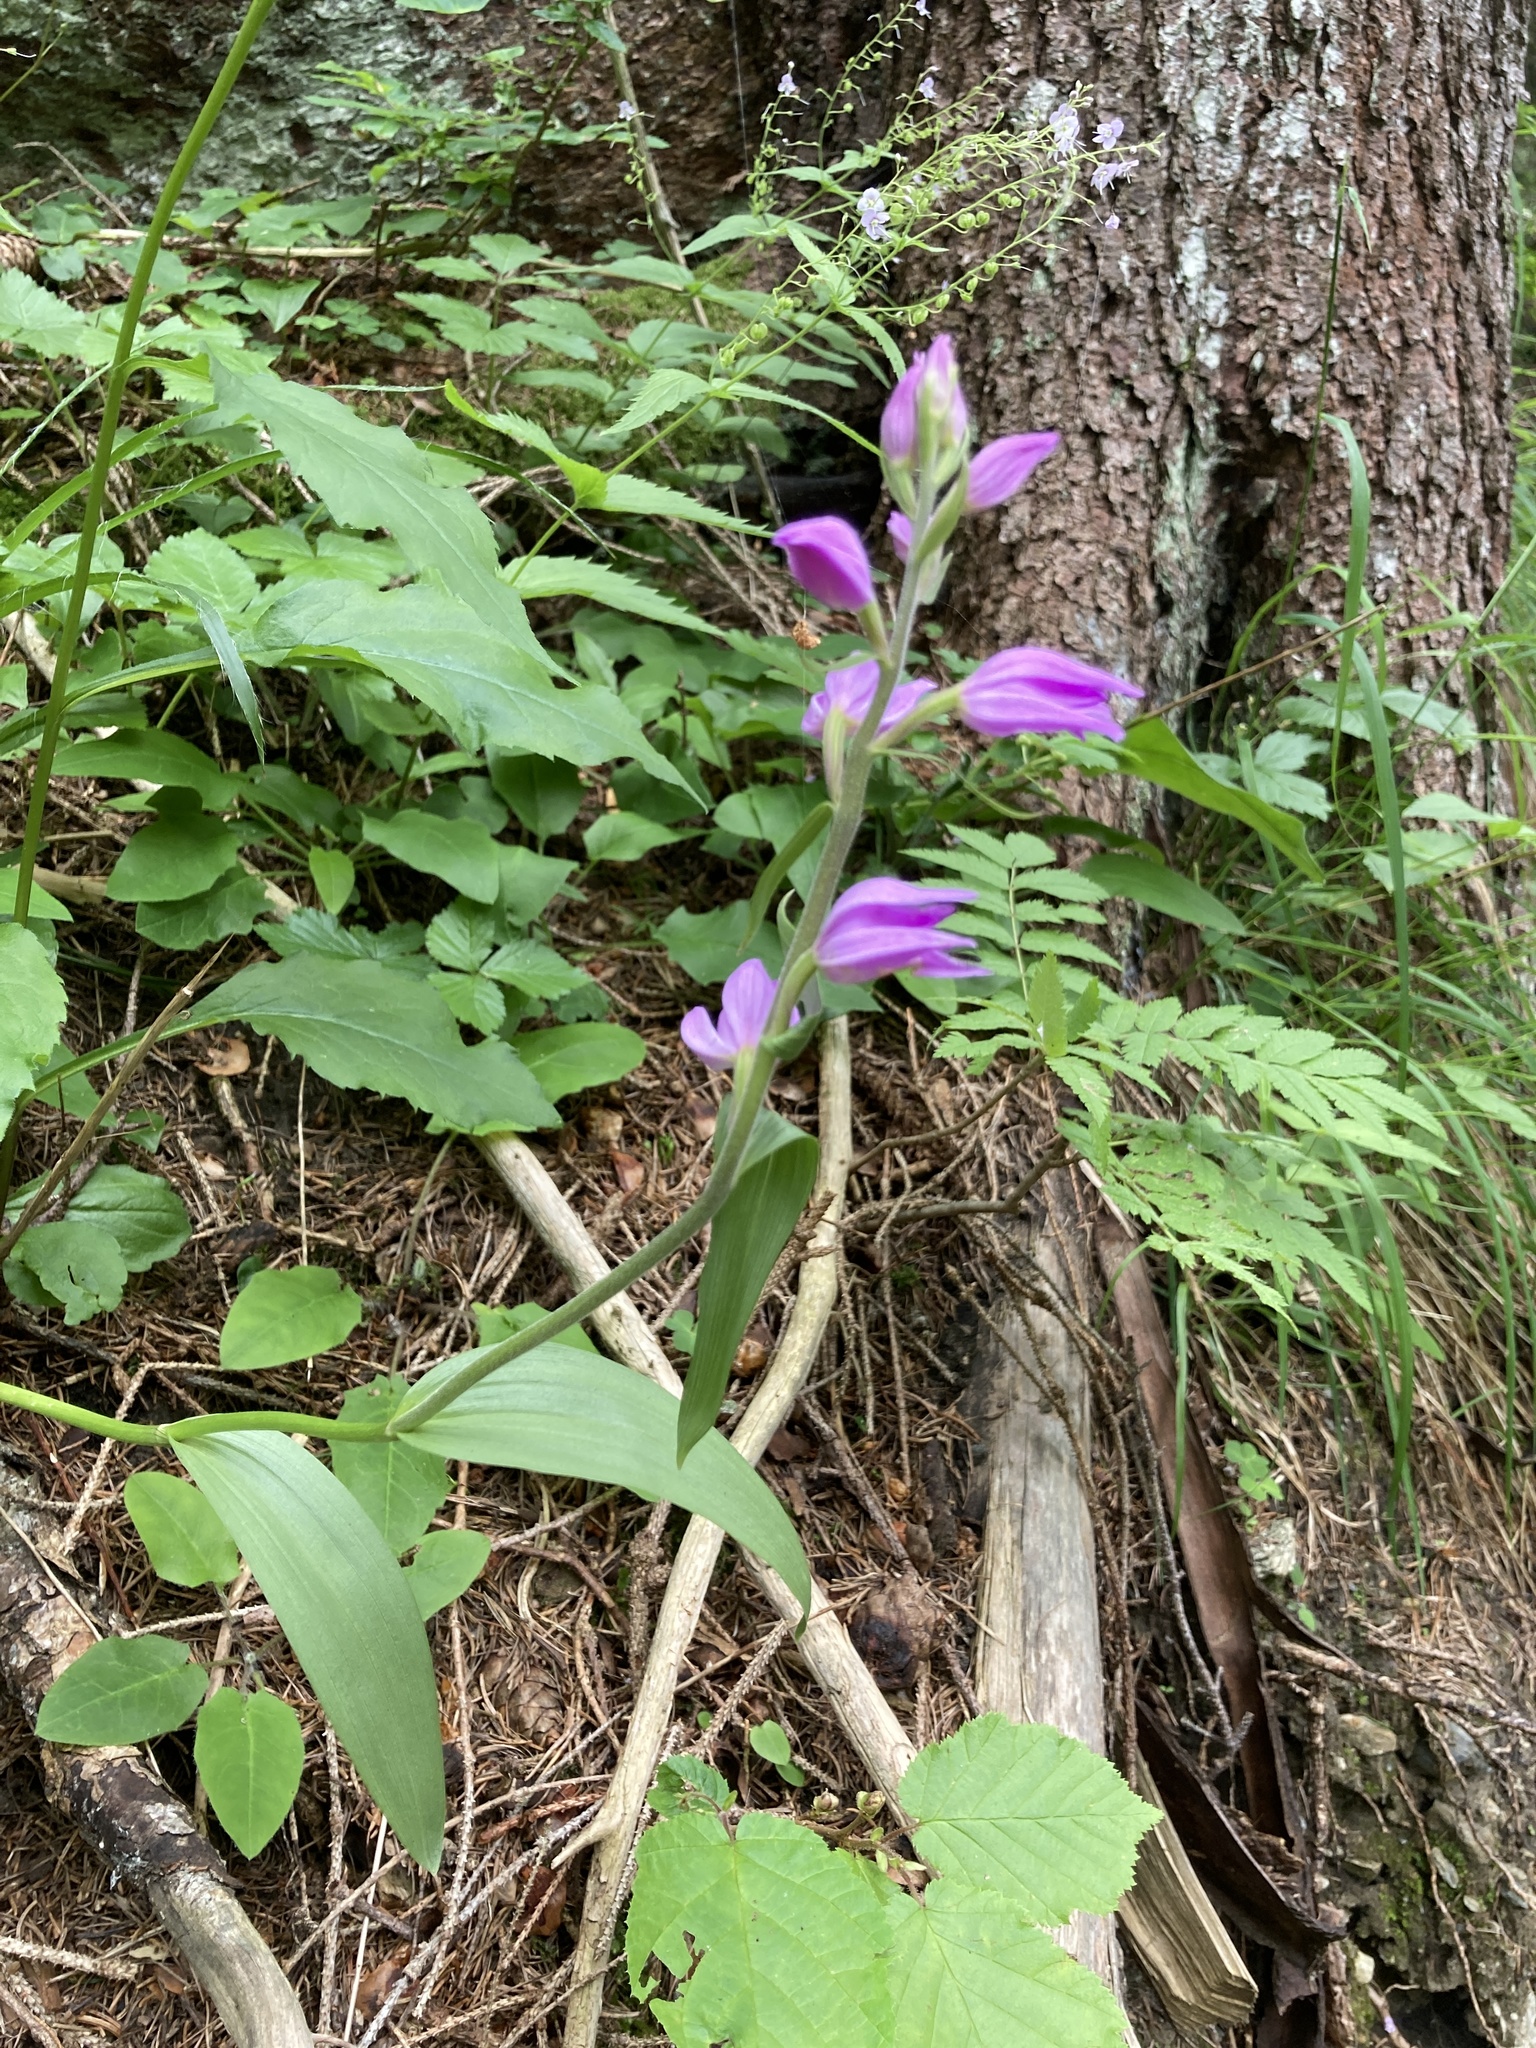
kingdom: Plantae
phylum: Tracheophyta
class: Liliopsida
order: Asparagales
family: Orchidaceae
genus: Cephalanthera
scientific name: Cephalanthera rubra
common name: Red helleborine
